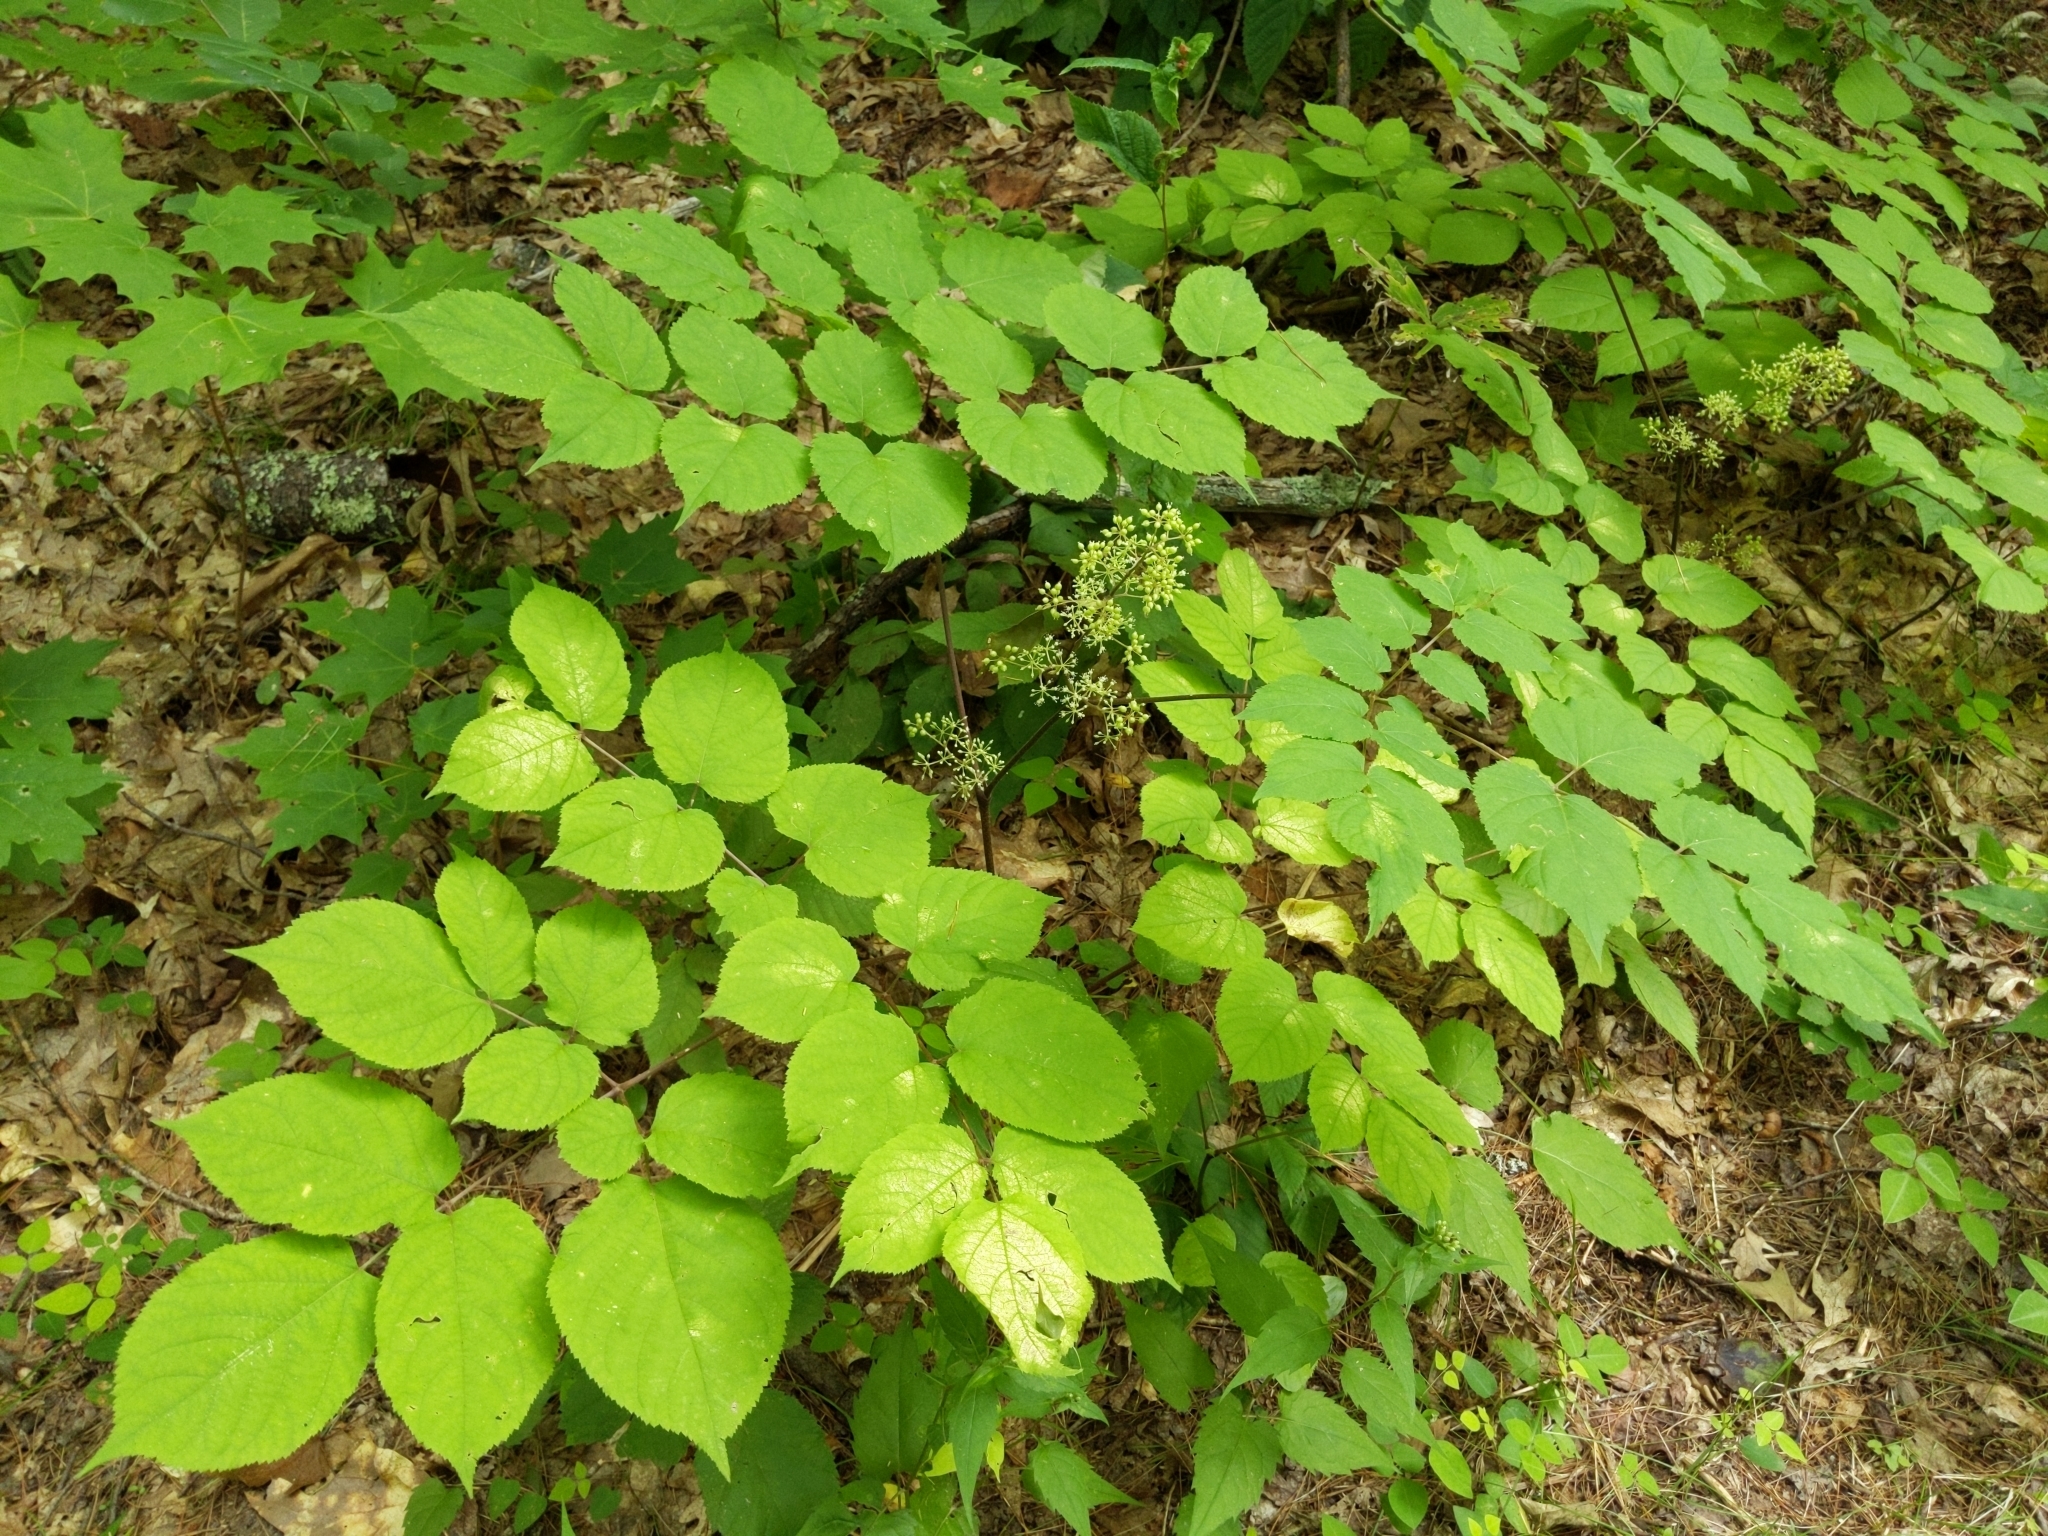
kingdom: Plantae
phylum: Tracheophyta
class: Magnoliopsida
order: Apiales
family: Araliaceae
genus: Aralia
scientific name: Aralia racemosa
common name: American-spikenard
